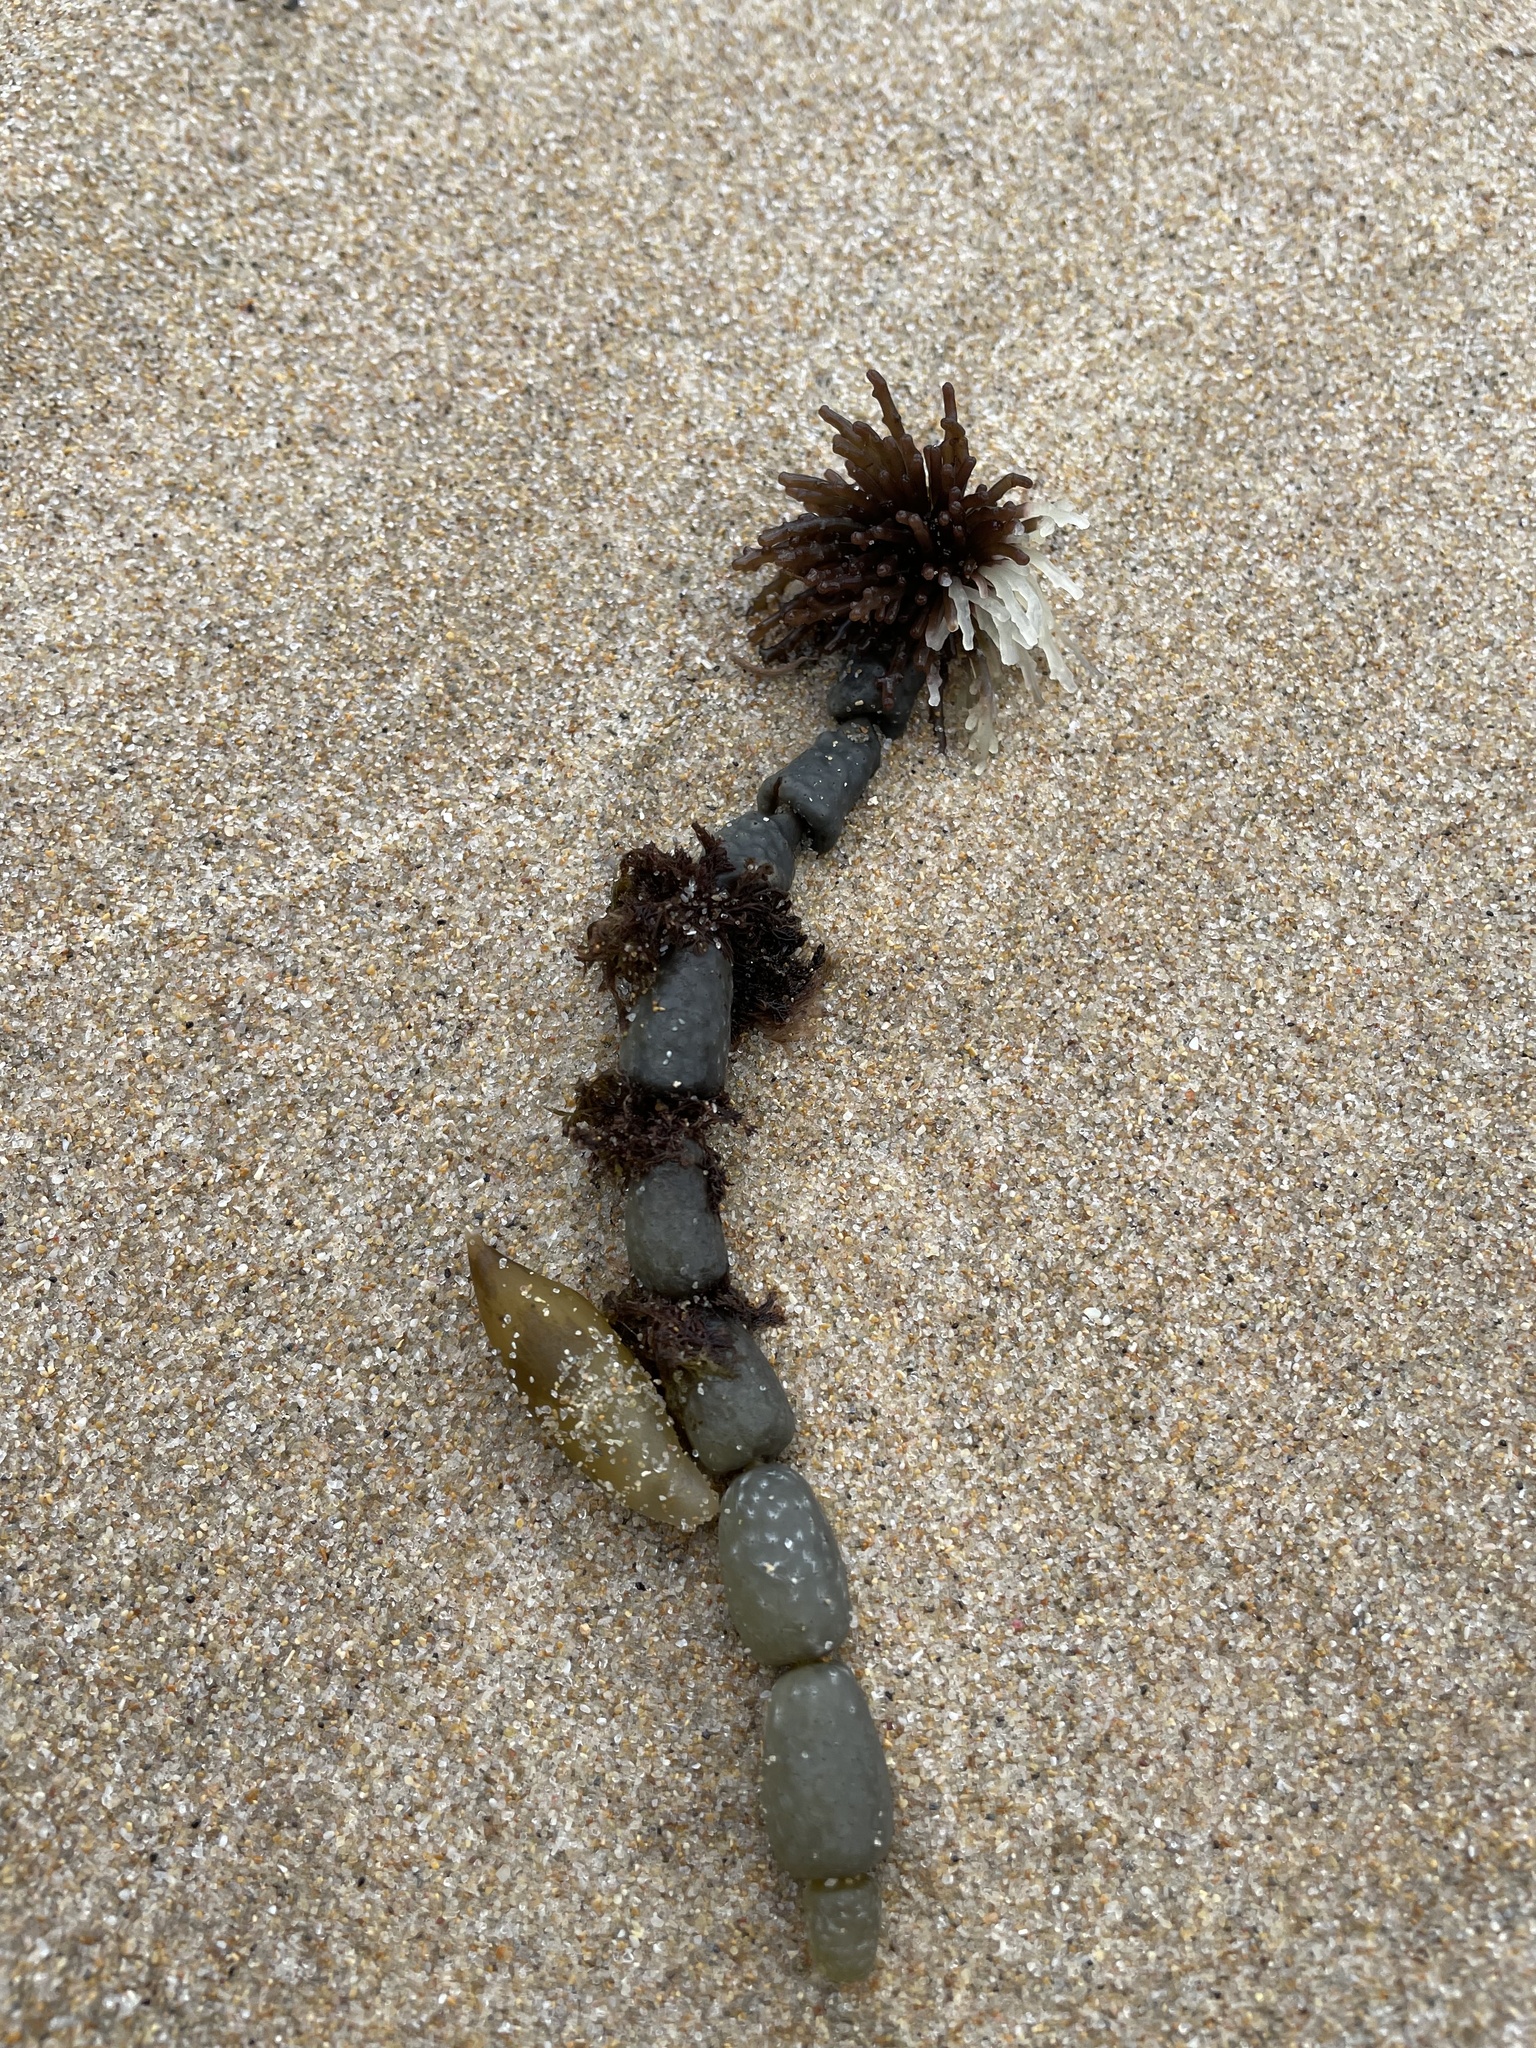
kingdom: Chromista
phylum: Ochrophyta
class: Phaeophyceae
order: Fucales
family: Hormosiraceae
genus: Hormosira
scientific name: Hormosira banksii
